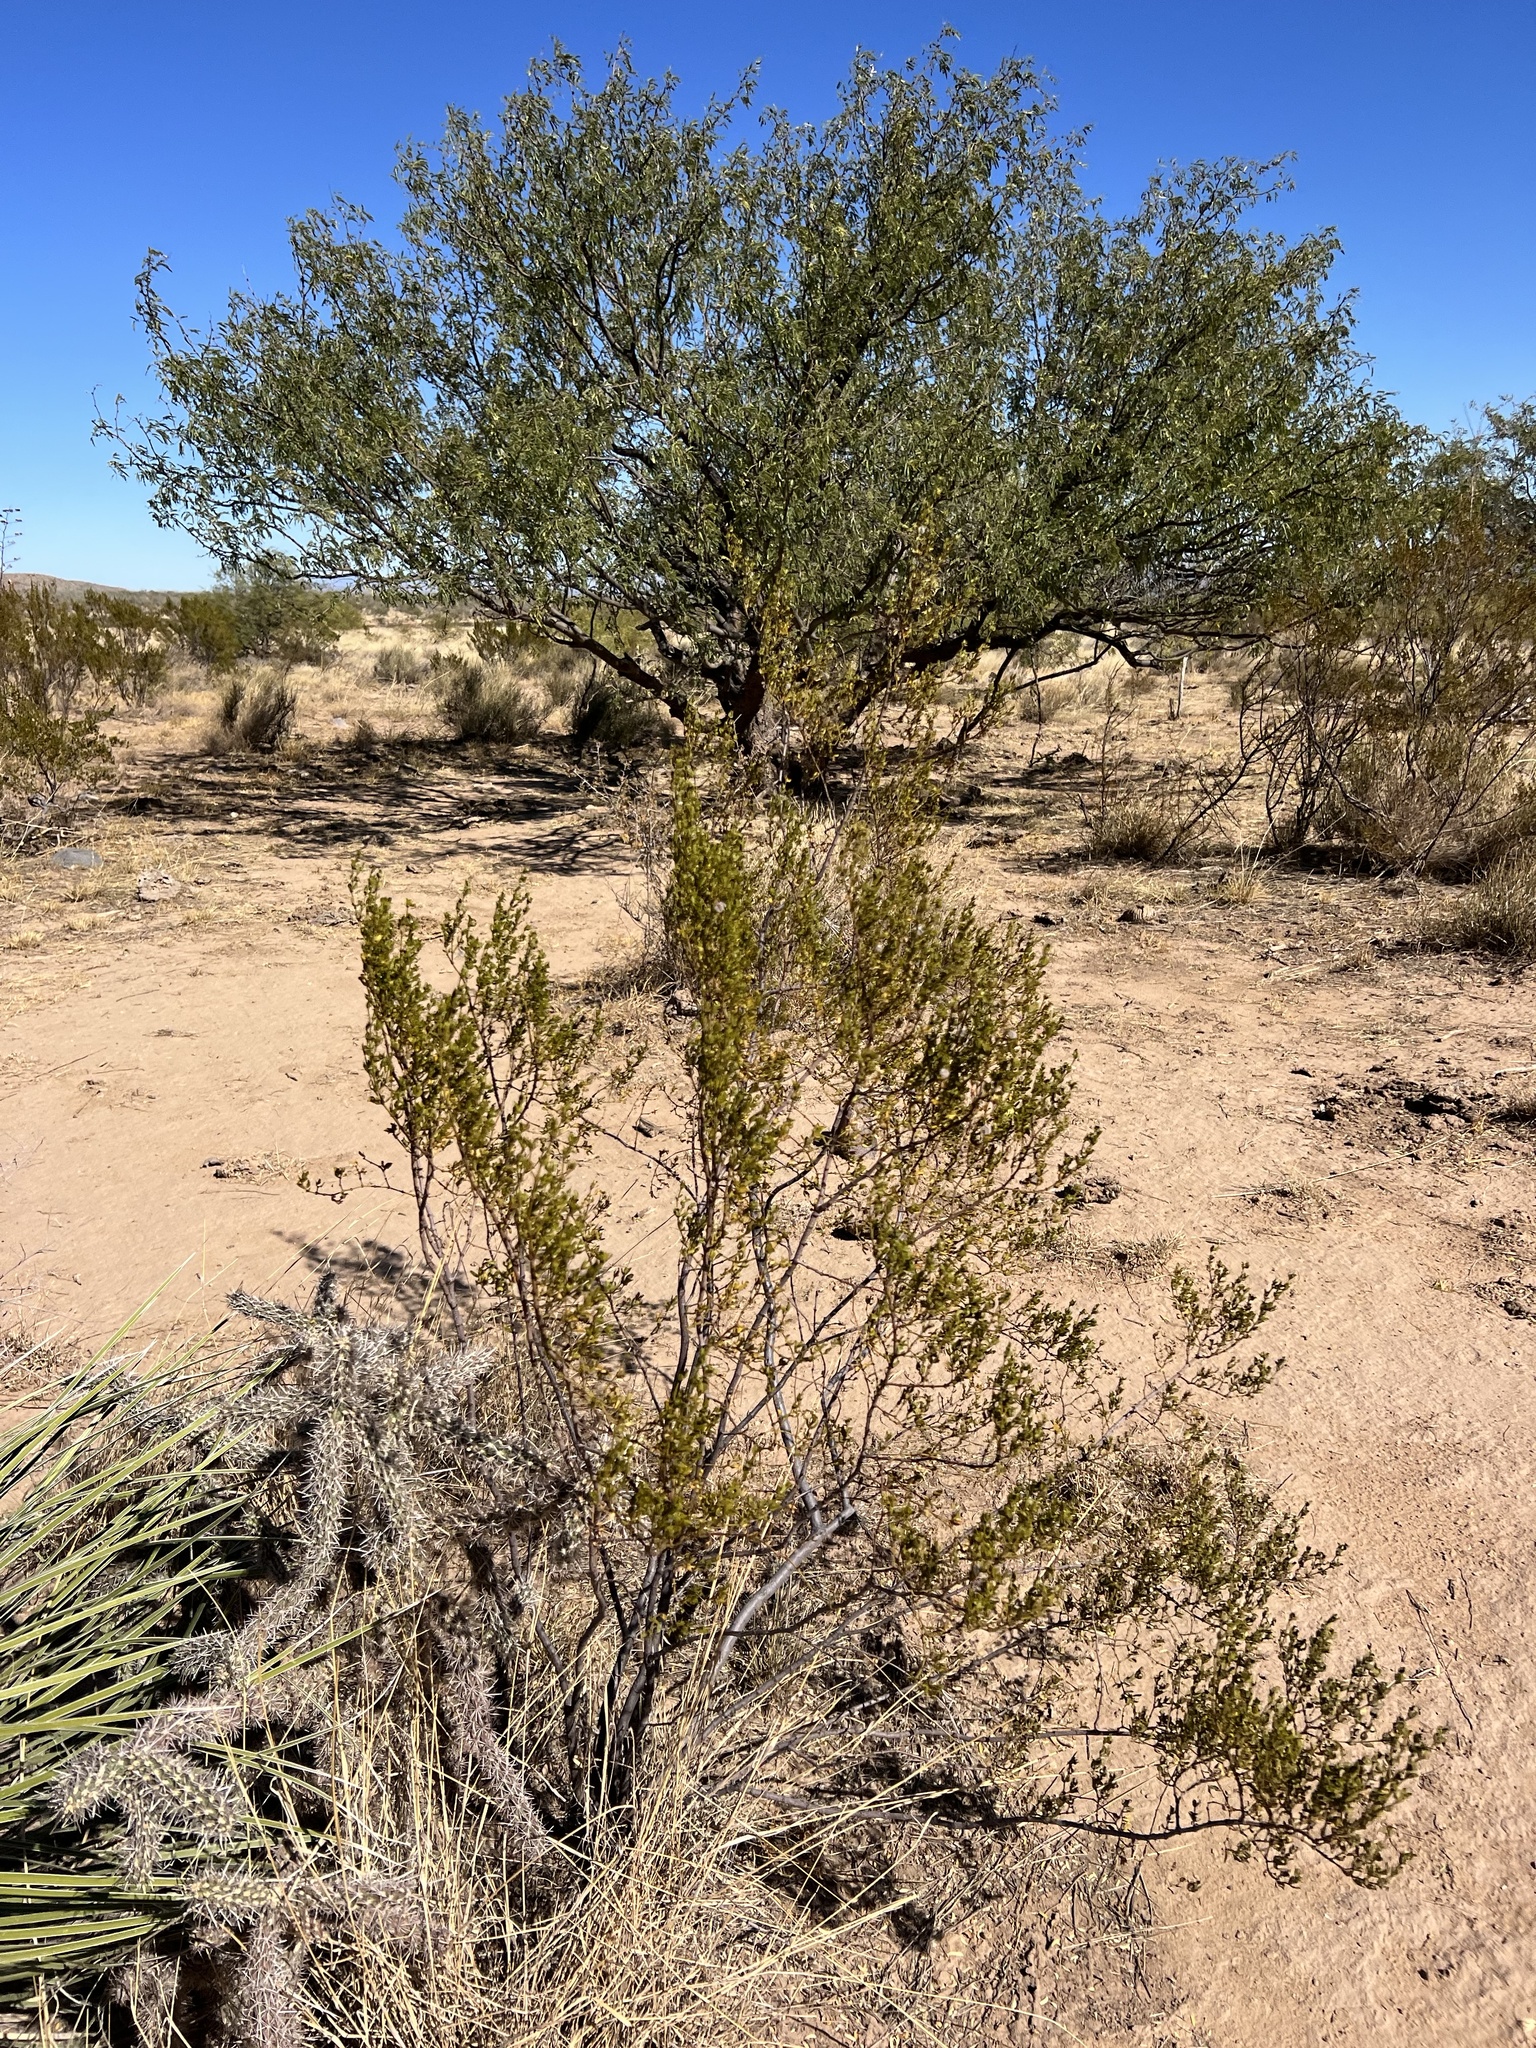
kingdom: Plantae
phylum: Tracheophyta
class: Magnoliopsida
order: Zygophyllales
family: Zygophyllaceae
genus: Larrea
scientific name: Larrea tridentata
